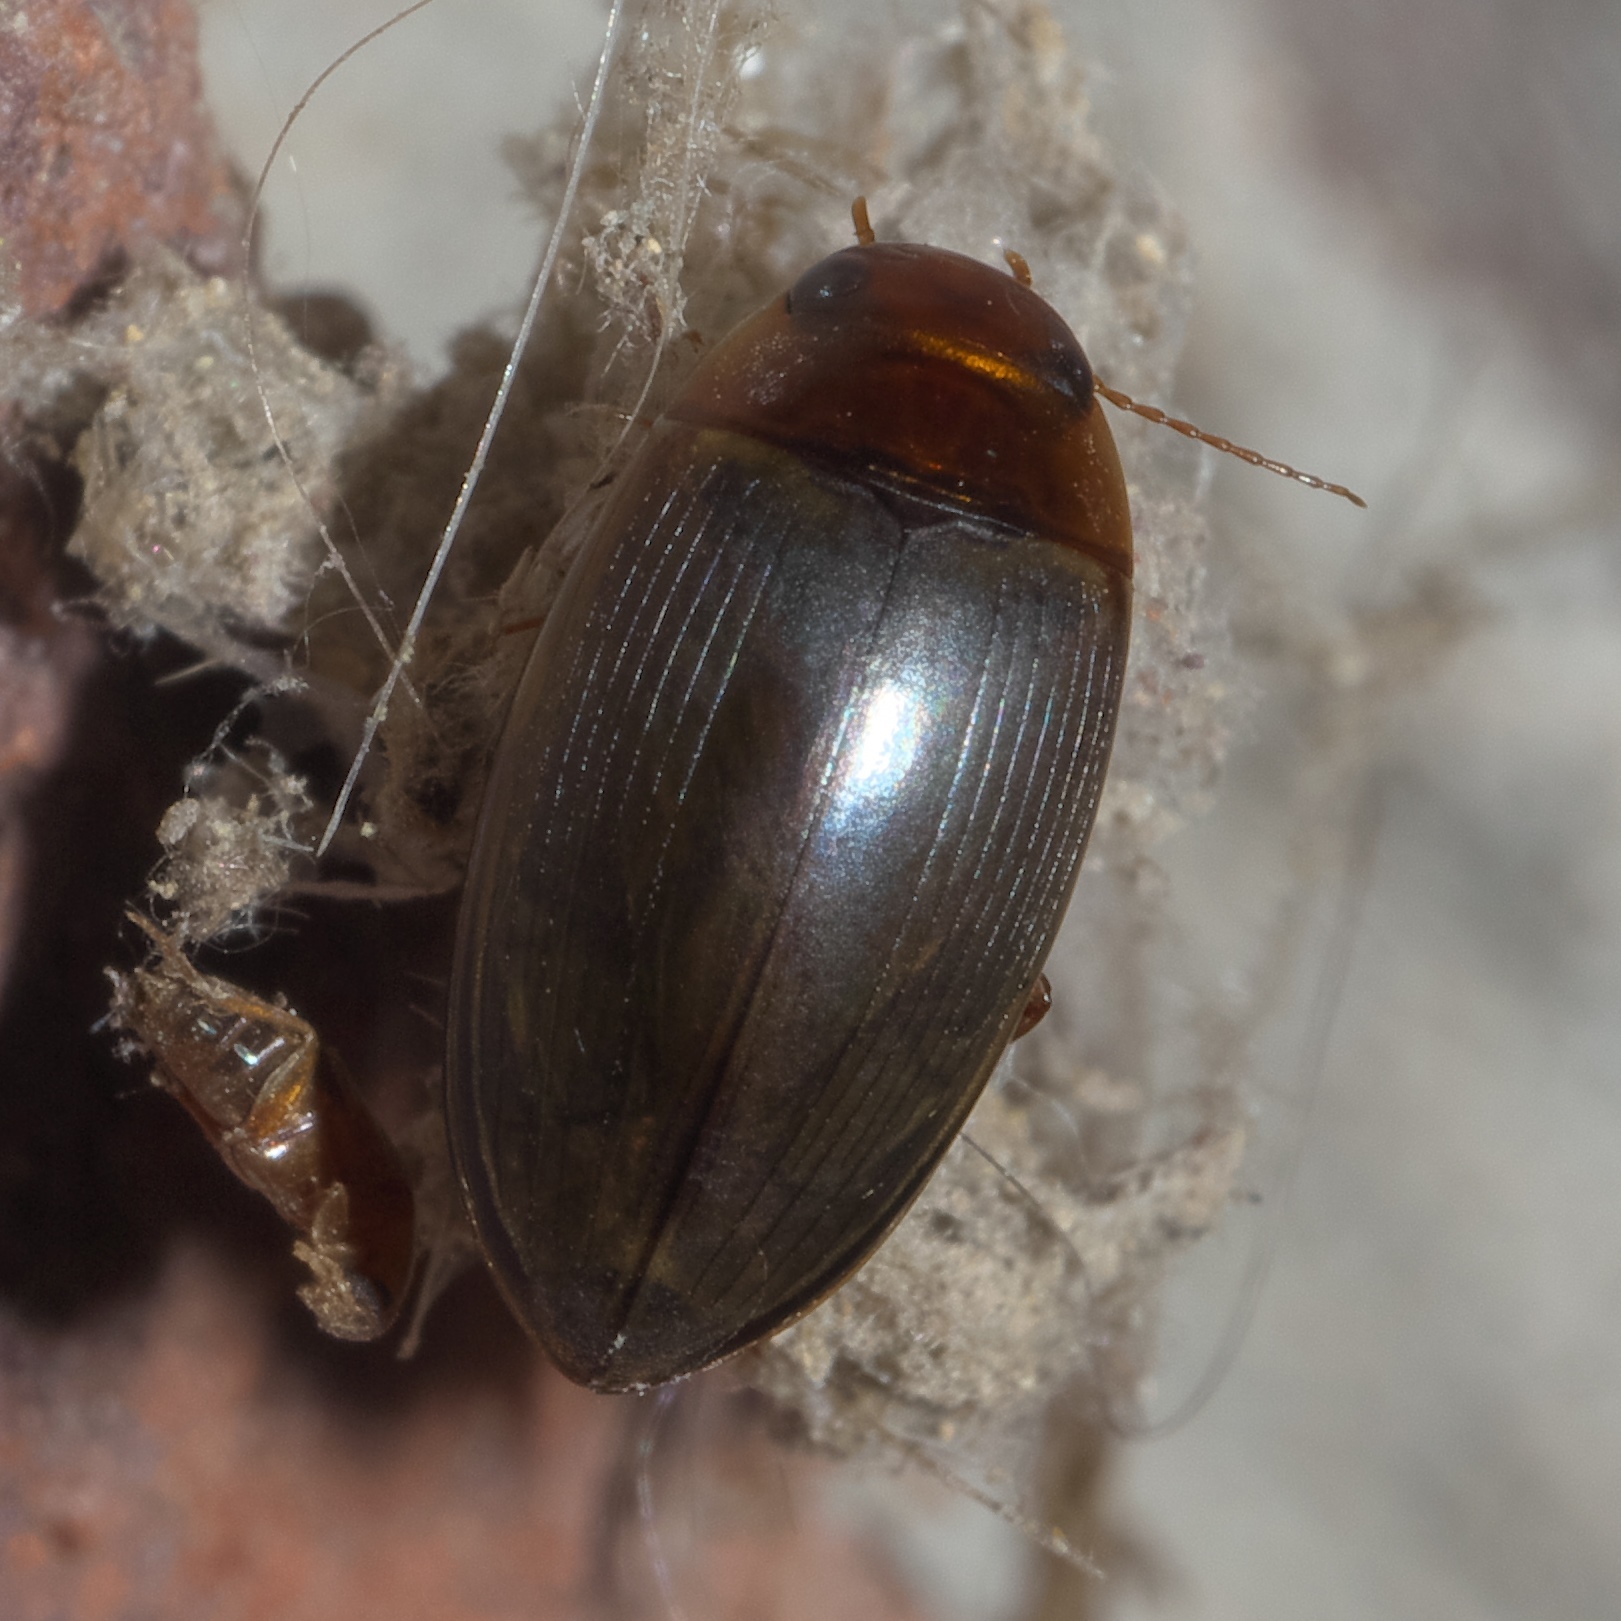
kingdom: Animalia
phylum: Arthropoda
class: Insecta
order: Coleoptera
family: Dytiscidae
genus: Copelatus
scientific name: Copelatus chevrolati
